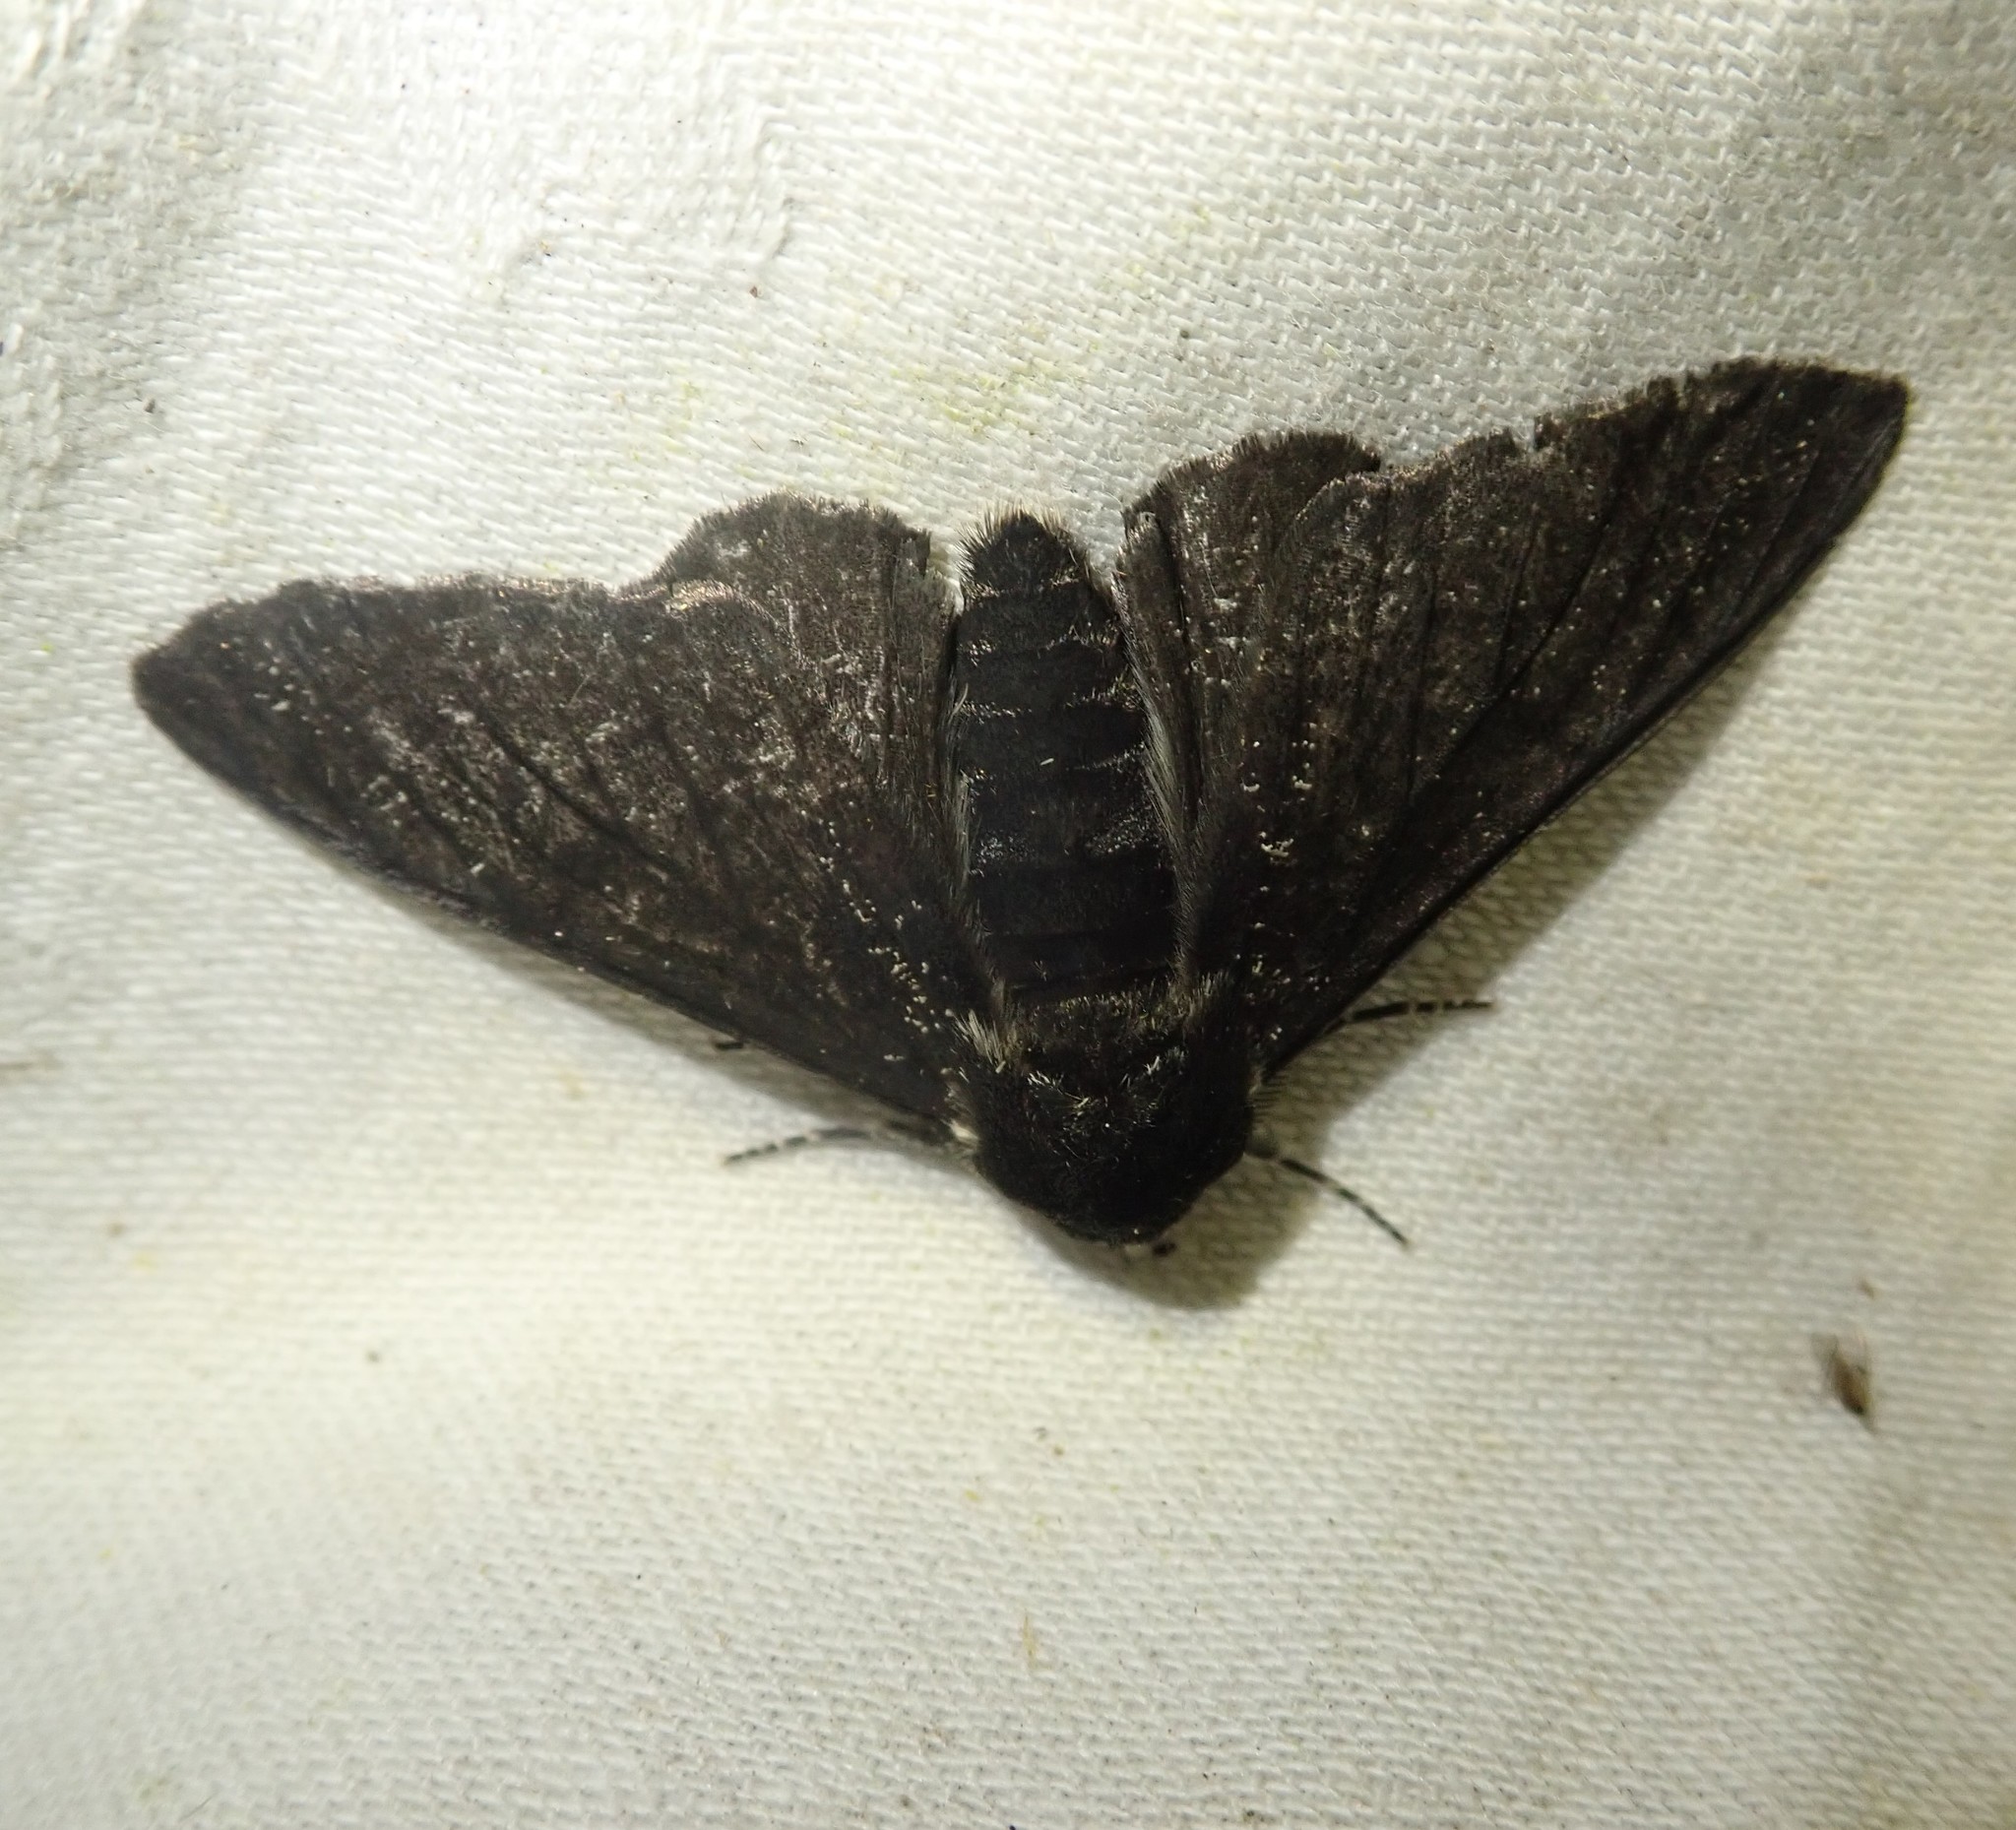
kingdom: Animalia
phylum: Arthropoda
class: Insecta
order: Lepidoptera
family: Geometridae
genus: Biston
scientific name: Biston betularia
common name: Peppered moth
